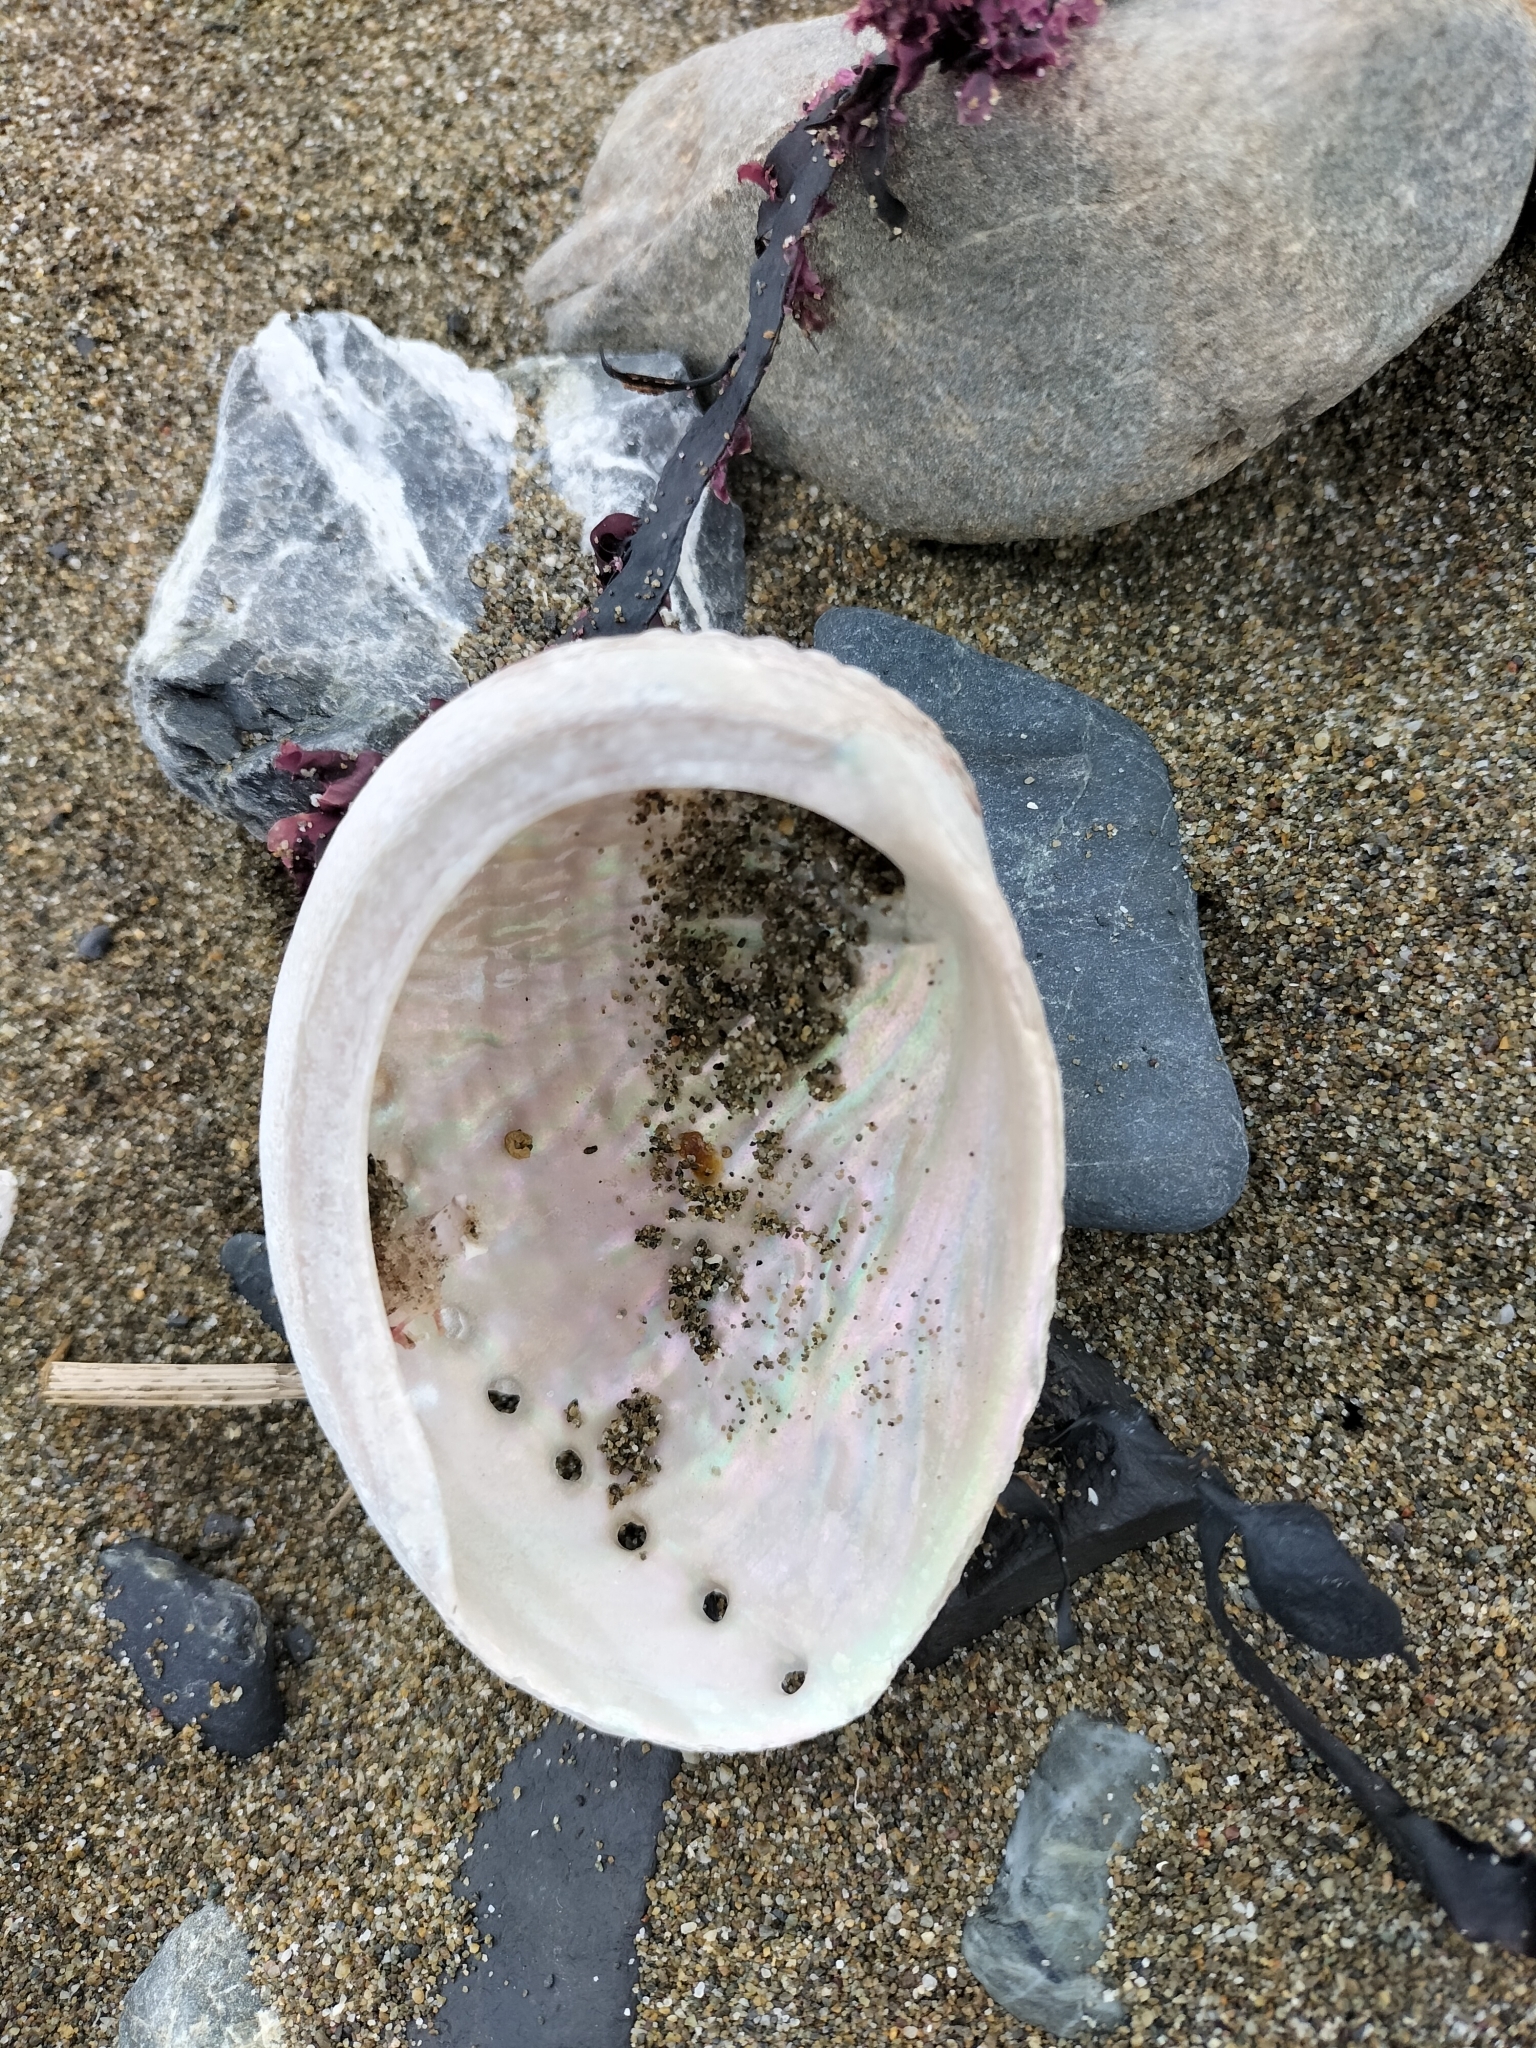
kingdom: Animalia
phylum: Mollusca
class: Gastropoda
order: Lepetellida
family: Haliotidae
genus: Haliotis
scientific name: Haliotis australis
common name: Silver abalone
